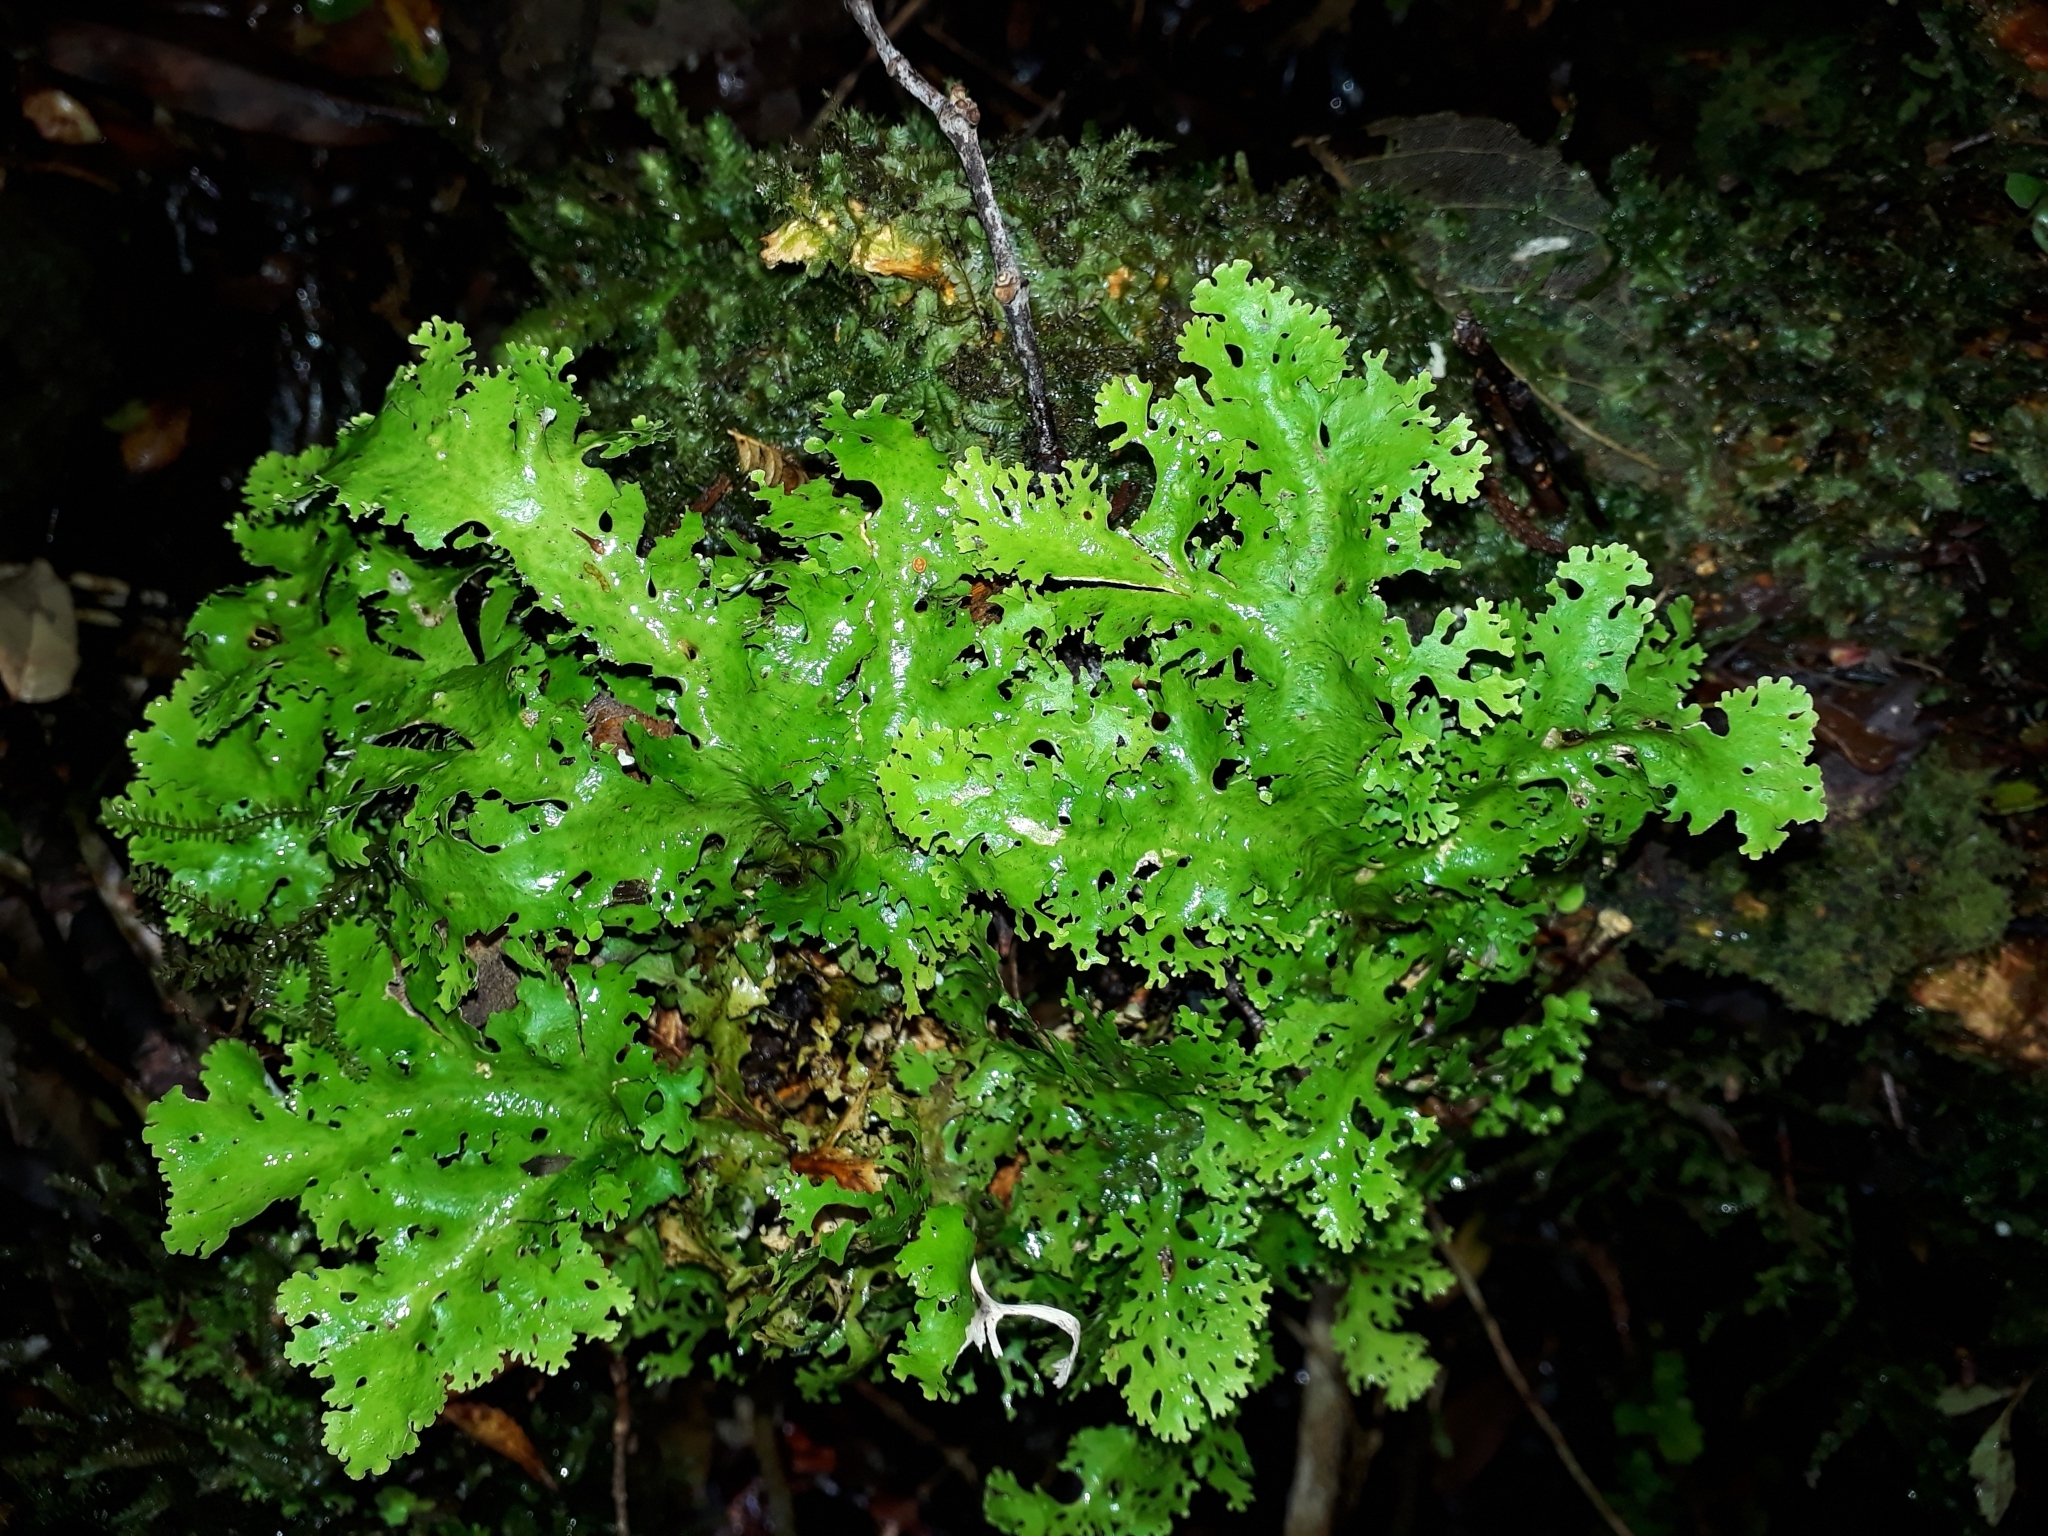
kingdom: Fungi
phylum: Ascomycota
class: Lecanoromycetes
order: Peltigerales
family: Lobariaceae
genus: Sticta
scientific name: Sticta filix
